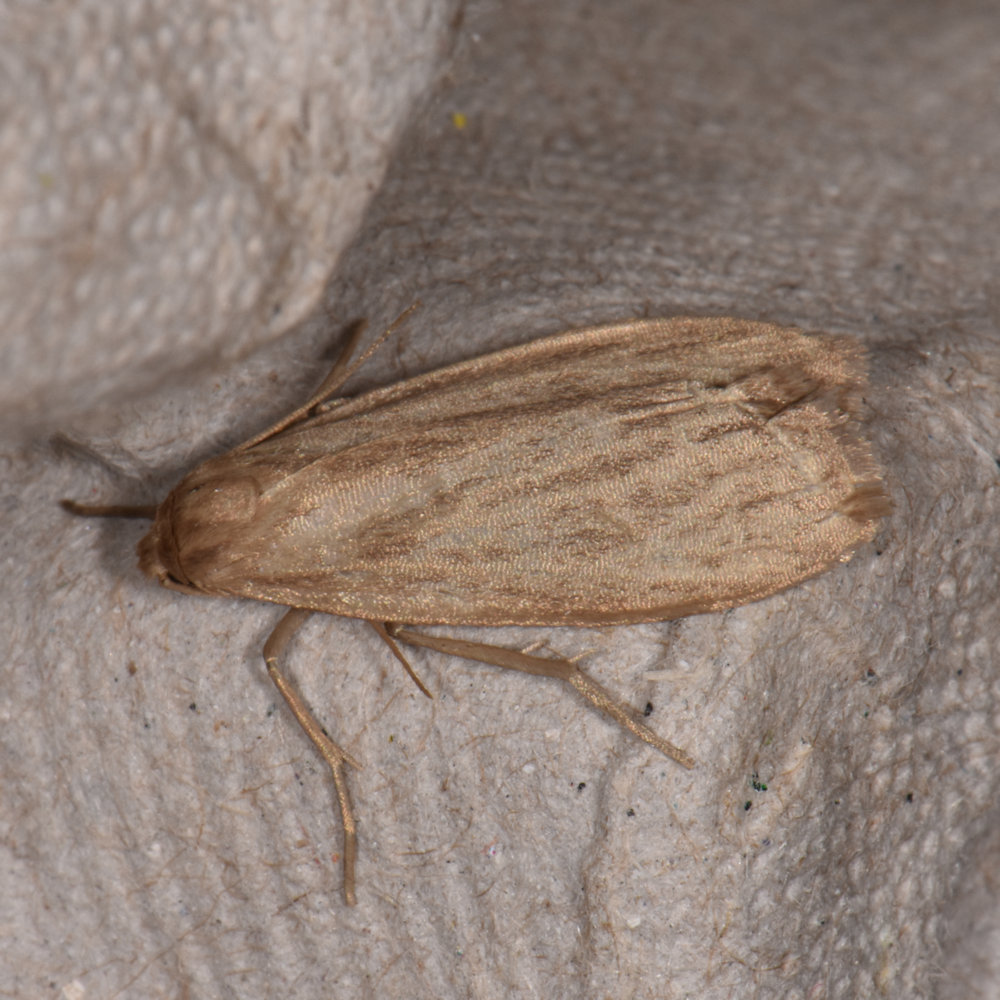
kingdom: Animalia
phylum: Arthropoda
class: Insecta
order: Lepidoptera
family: Erebidae
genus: Crambidia
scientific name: Crambidia pallida
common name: Pale lichen moth
